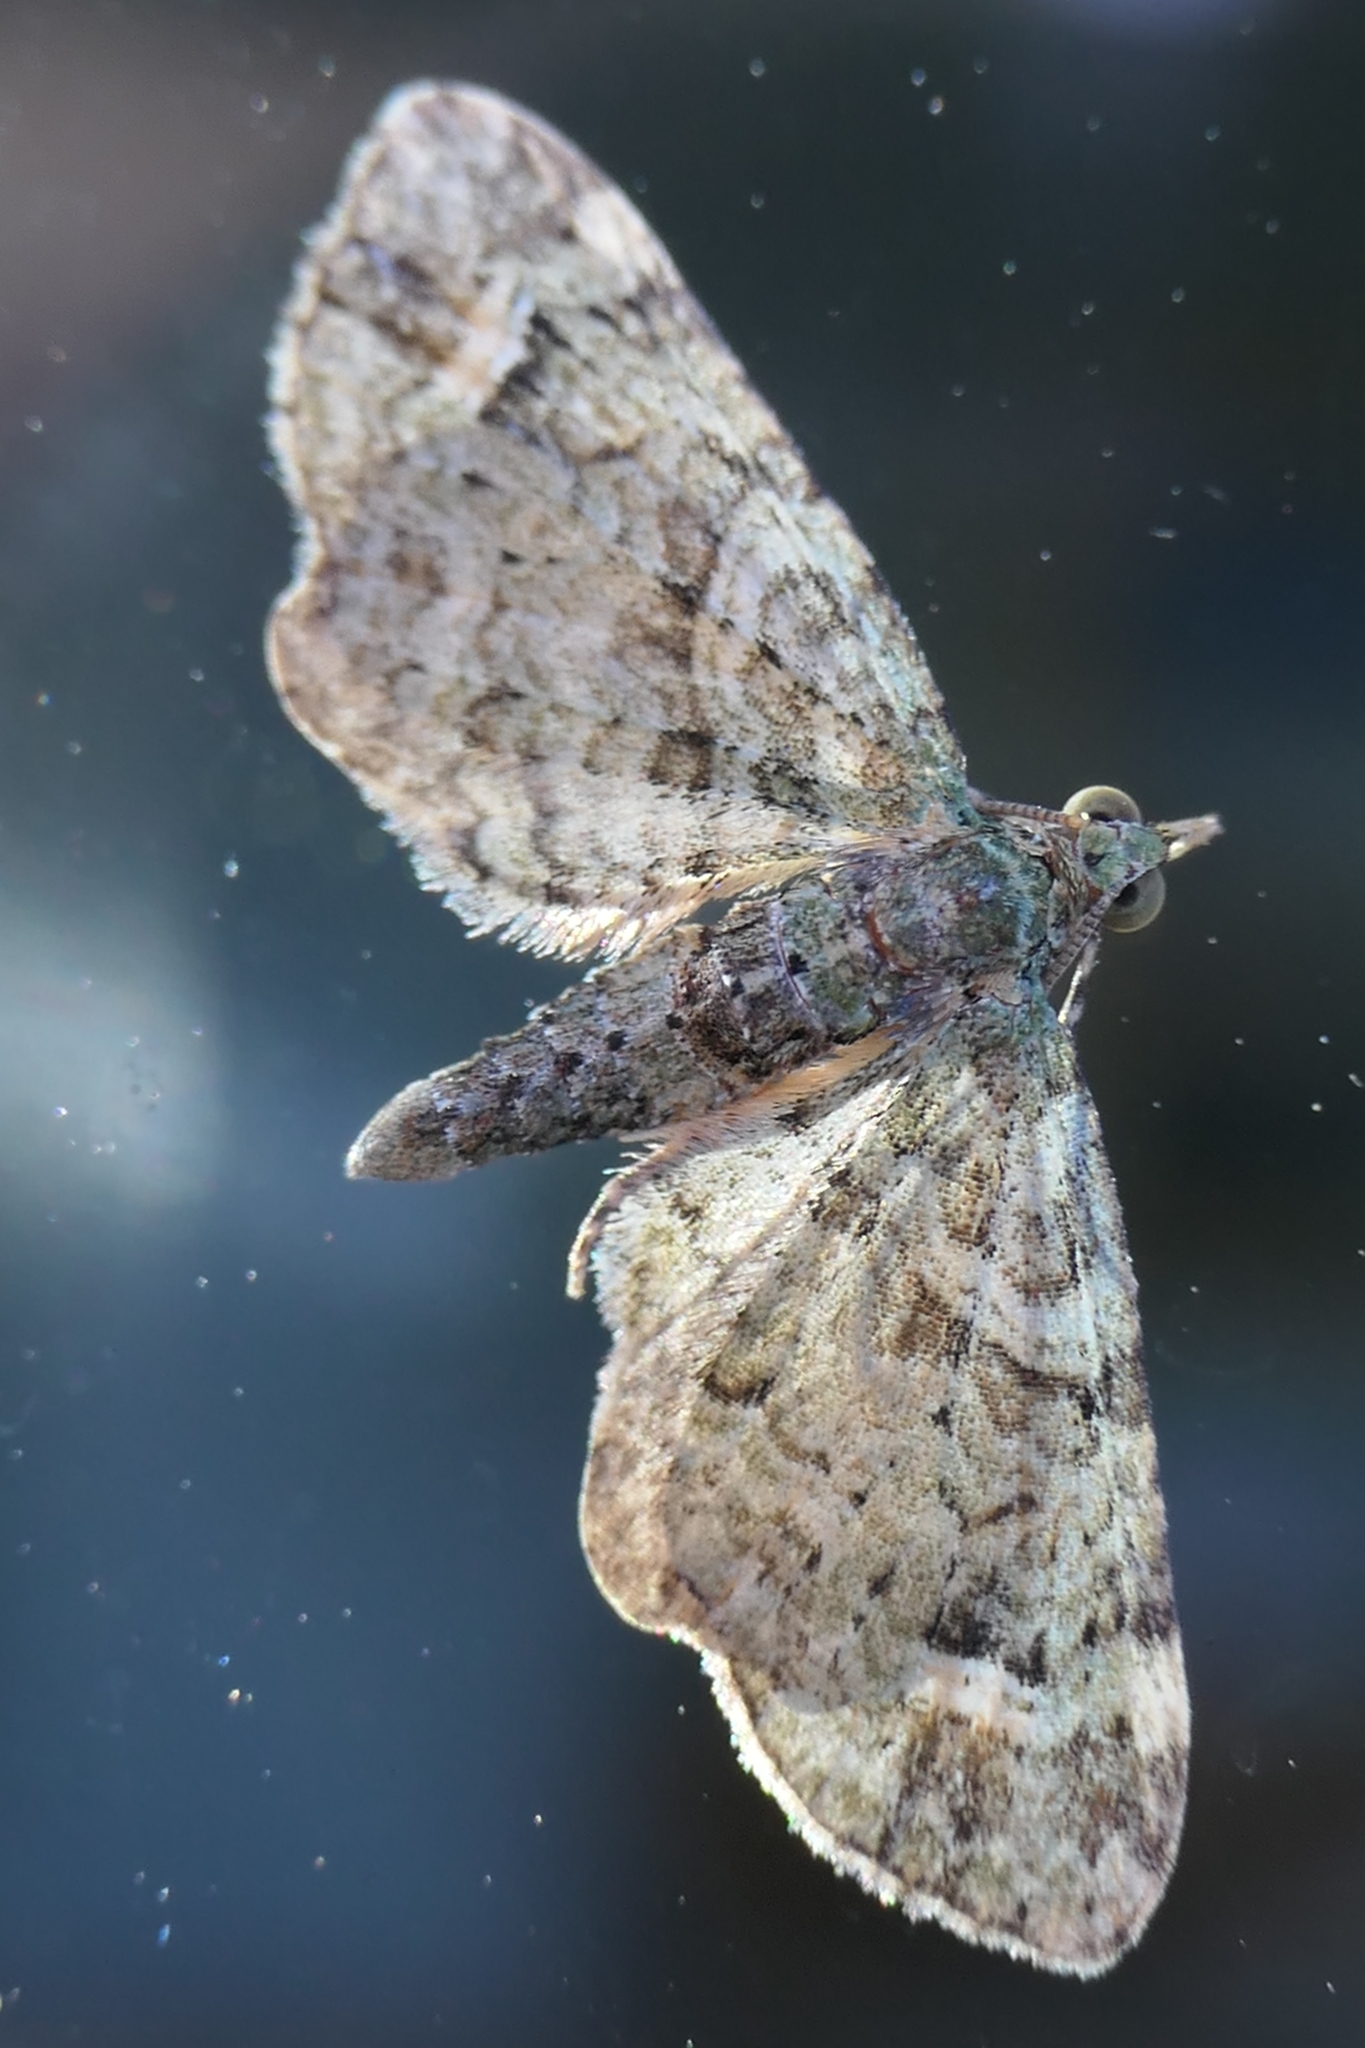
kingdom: Animalia
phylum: Arthropoda
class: Insecta
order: Lepidoptera
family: Geometridae
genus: Idaea
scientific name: Idaea mutanda
